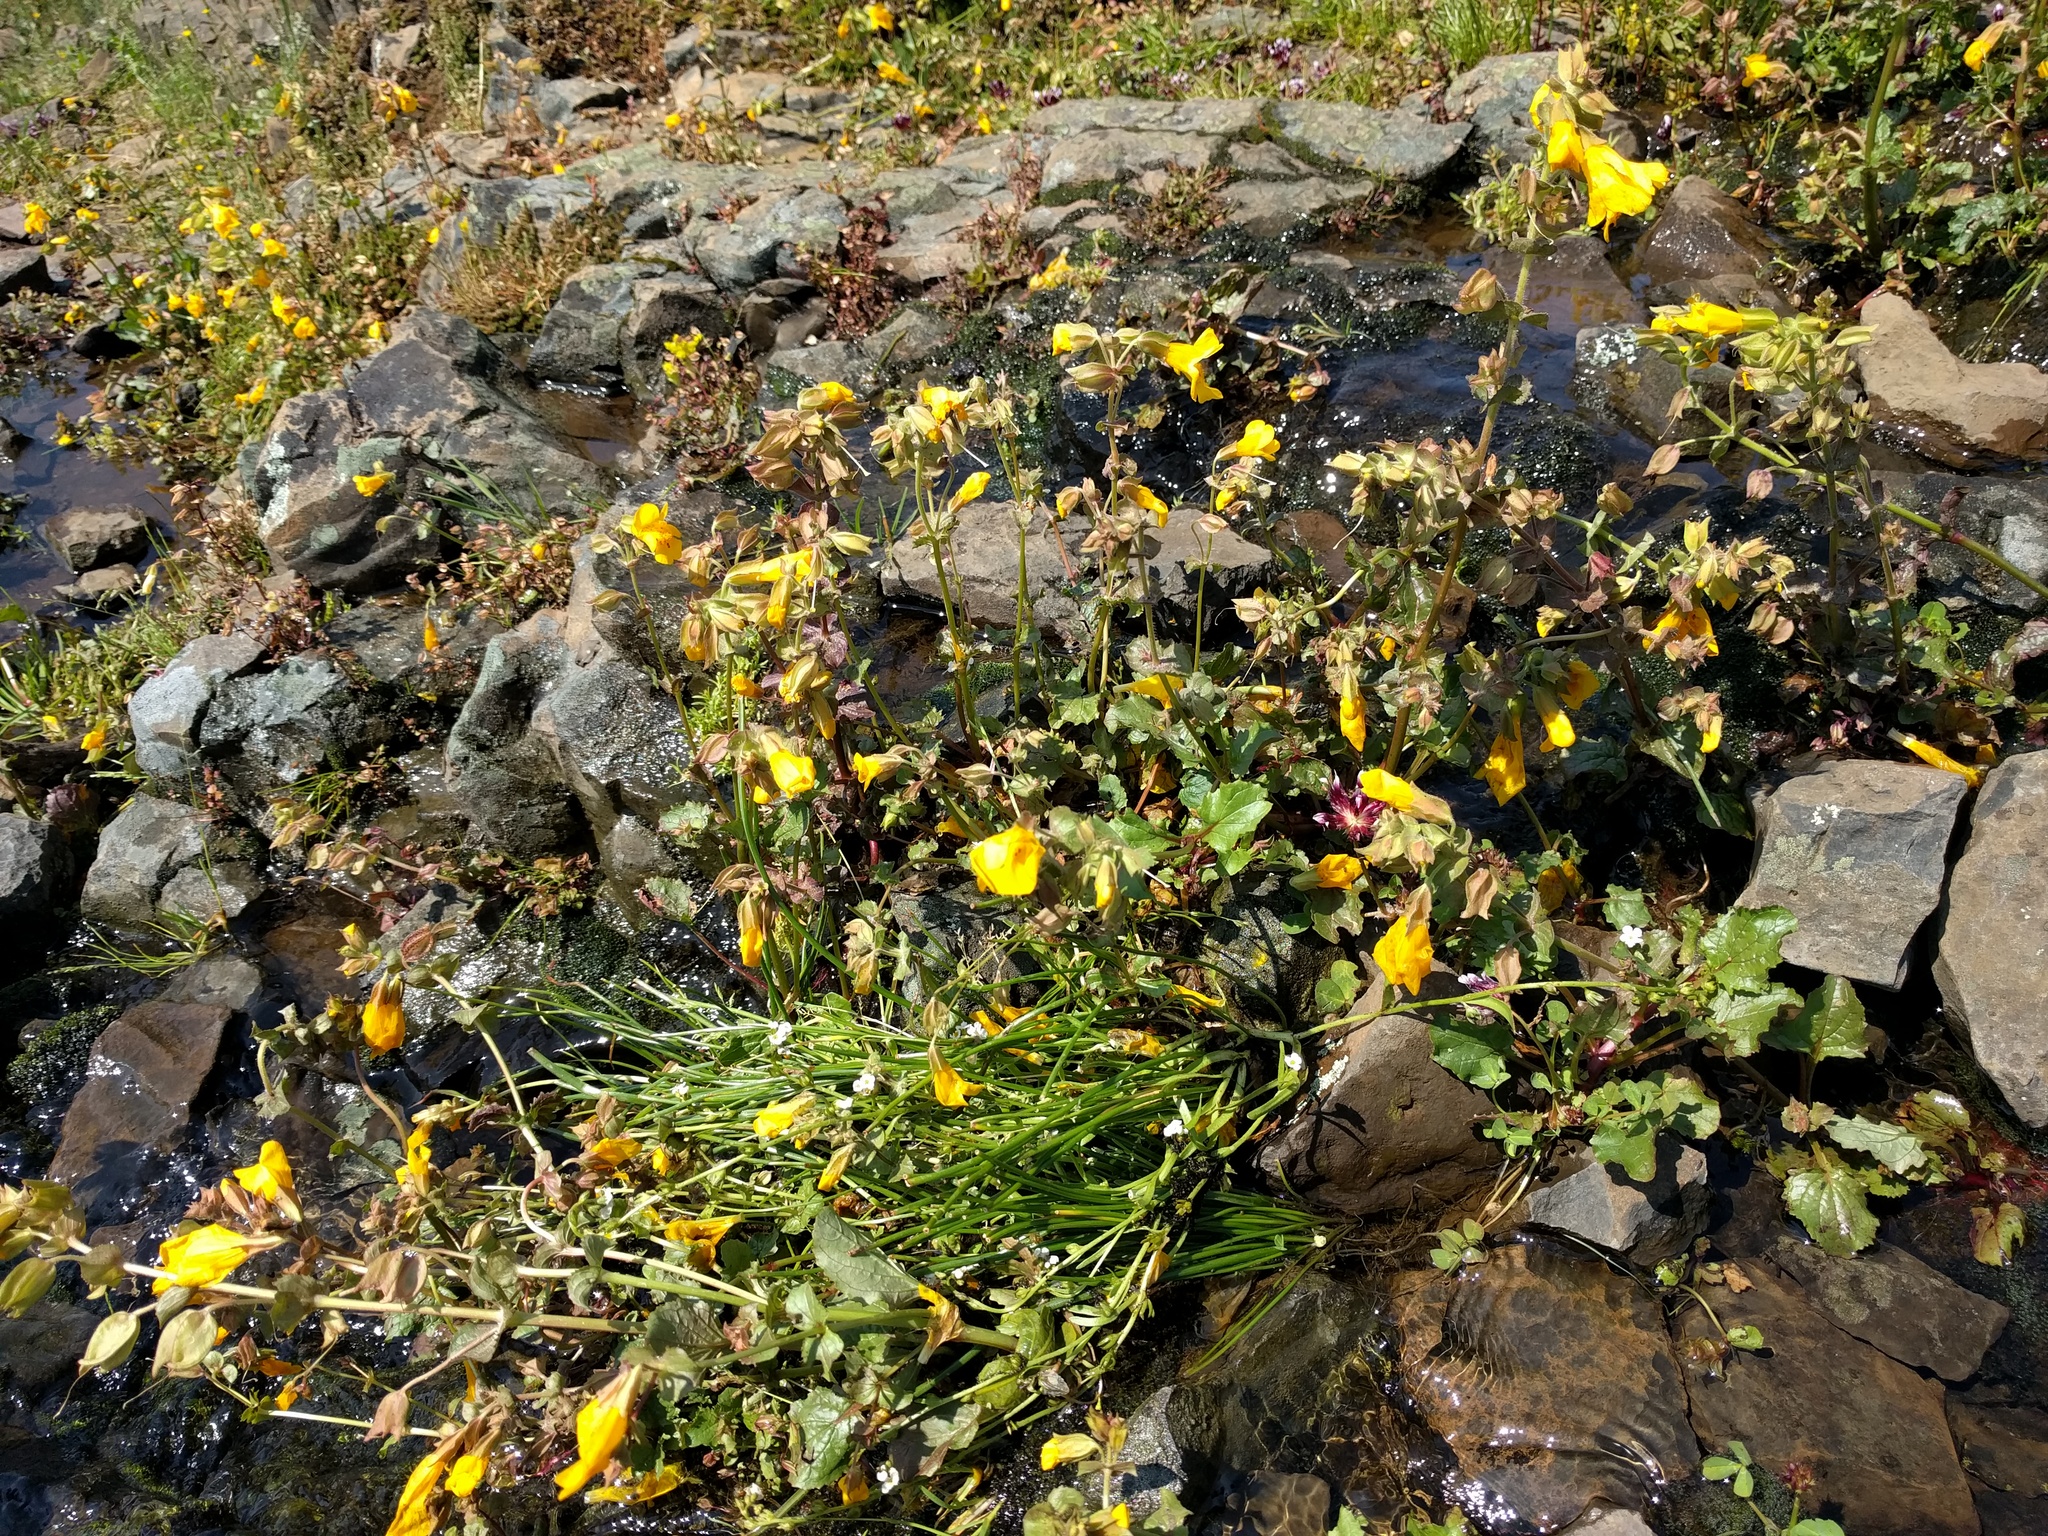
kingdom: Plantae
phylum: Tracheophyta
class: Magnoliopsida
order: Lamiales
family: Phrymaceae
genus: Erythranthe
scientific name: Erythranthe guttata
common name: Monkeyflower
